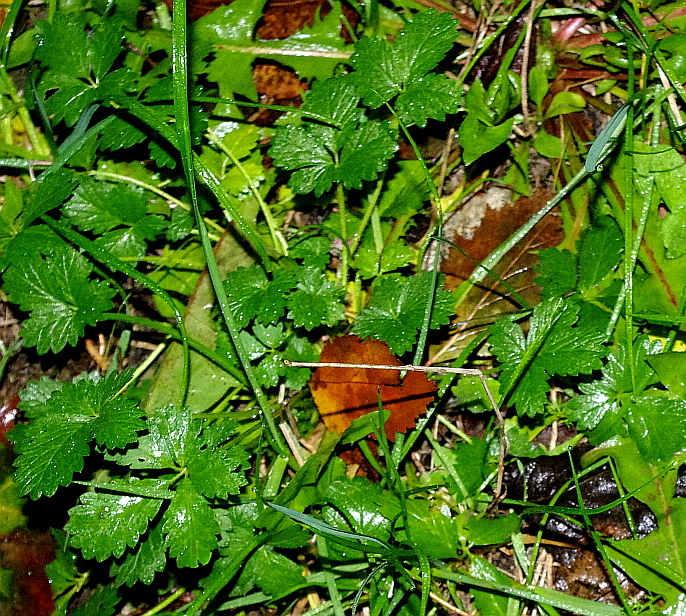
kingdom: Plantae
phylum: Tracheophyta
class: Magnoliopsida
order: Rosales
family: Rosaceae
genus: Potentilla
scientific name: Potentilla intermedia
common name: Downy cinquefoil
